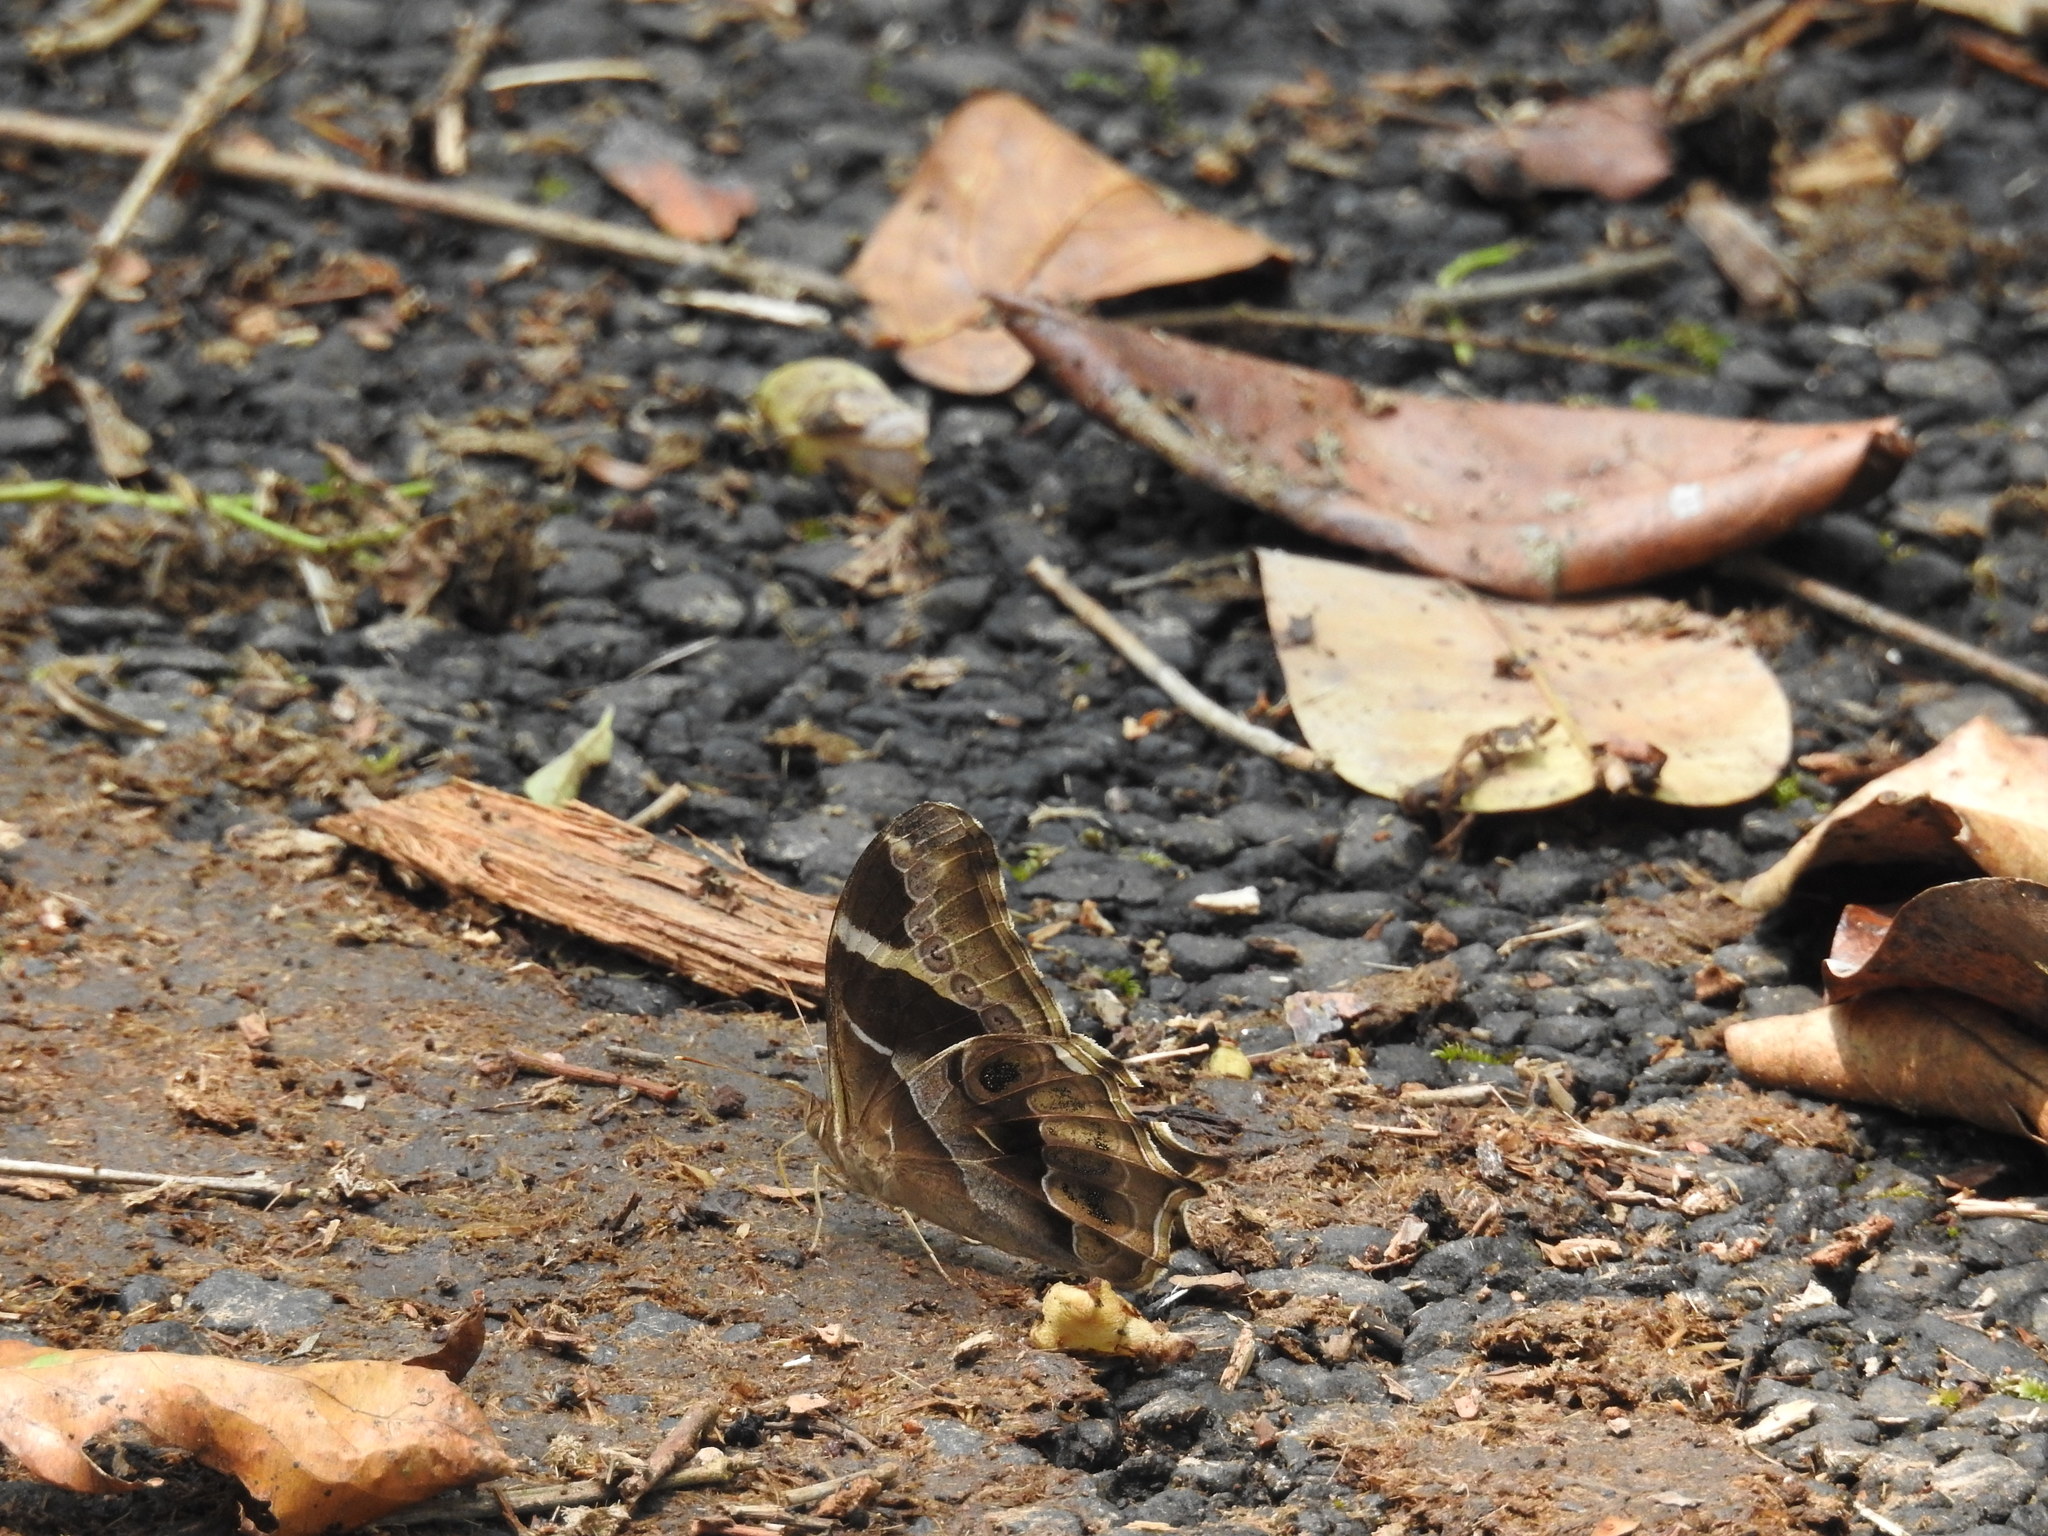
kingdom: Animalia
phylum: Arthropoda
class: Insecta
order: Lepidoptera
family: Nymphalidae
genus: Lethe
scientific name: Lethe europa
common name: Bamboo treebrown
